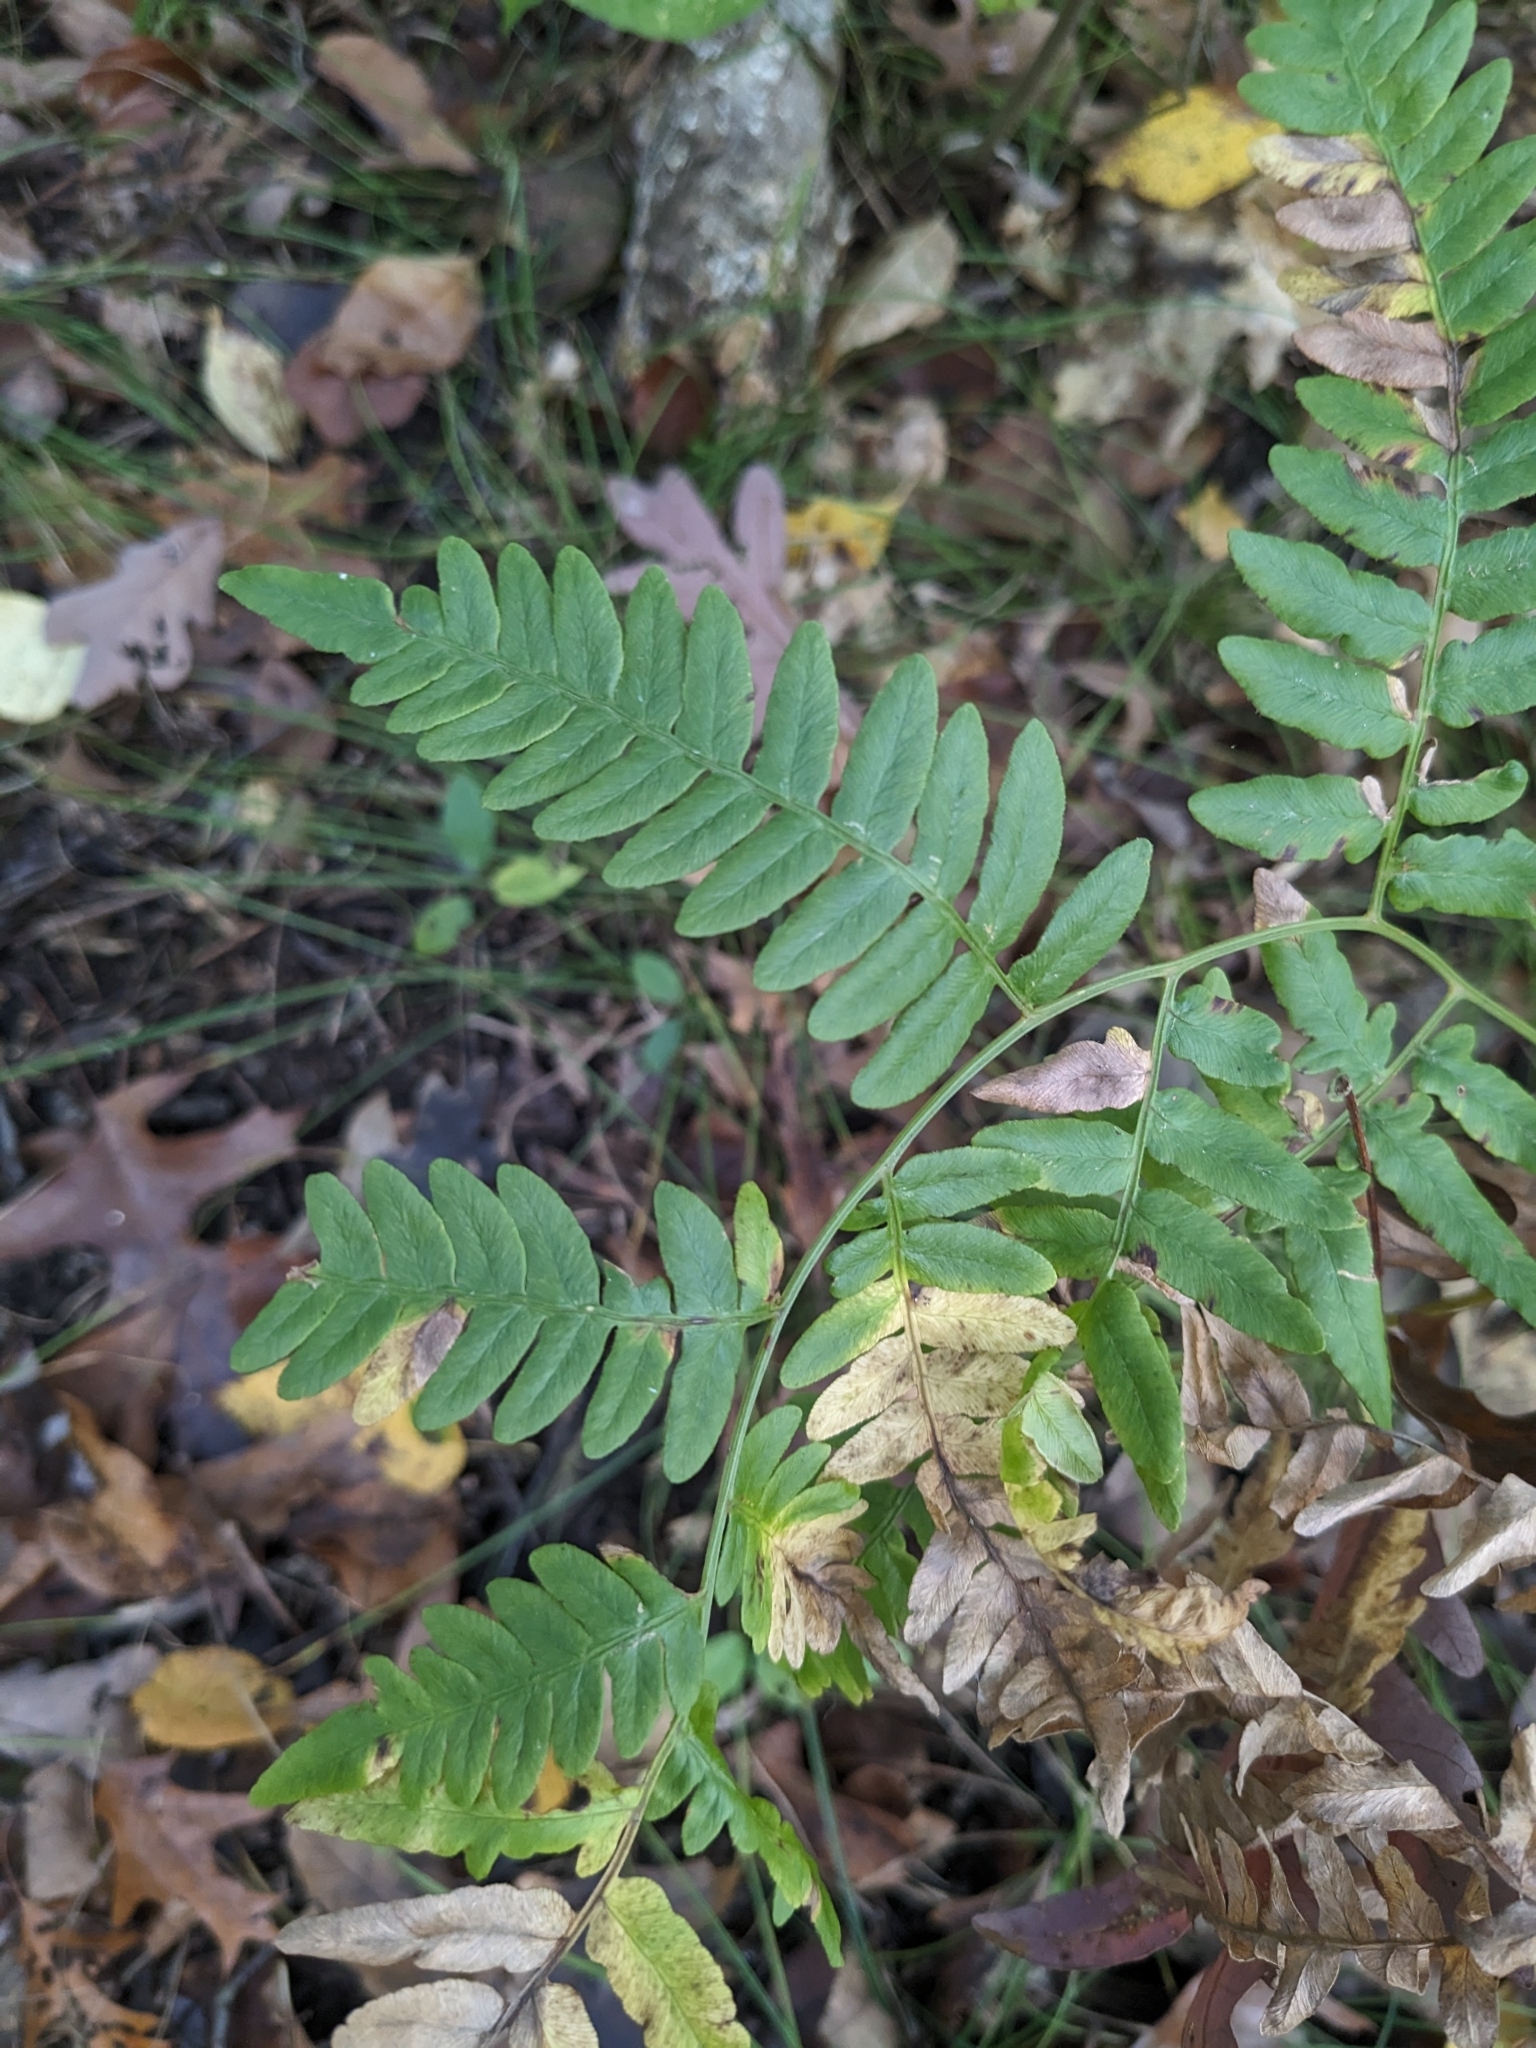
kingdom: Plantae
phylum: Tracheophyta
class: Polypodiopsida
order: Polypodiales
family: Dennstaedtiaceae
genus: Pteridium
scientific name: Pteridium aquilinum
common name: Bracken
